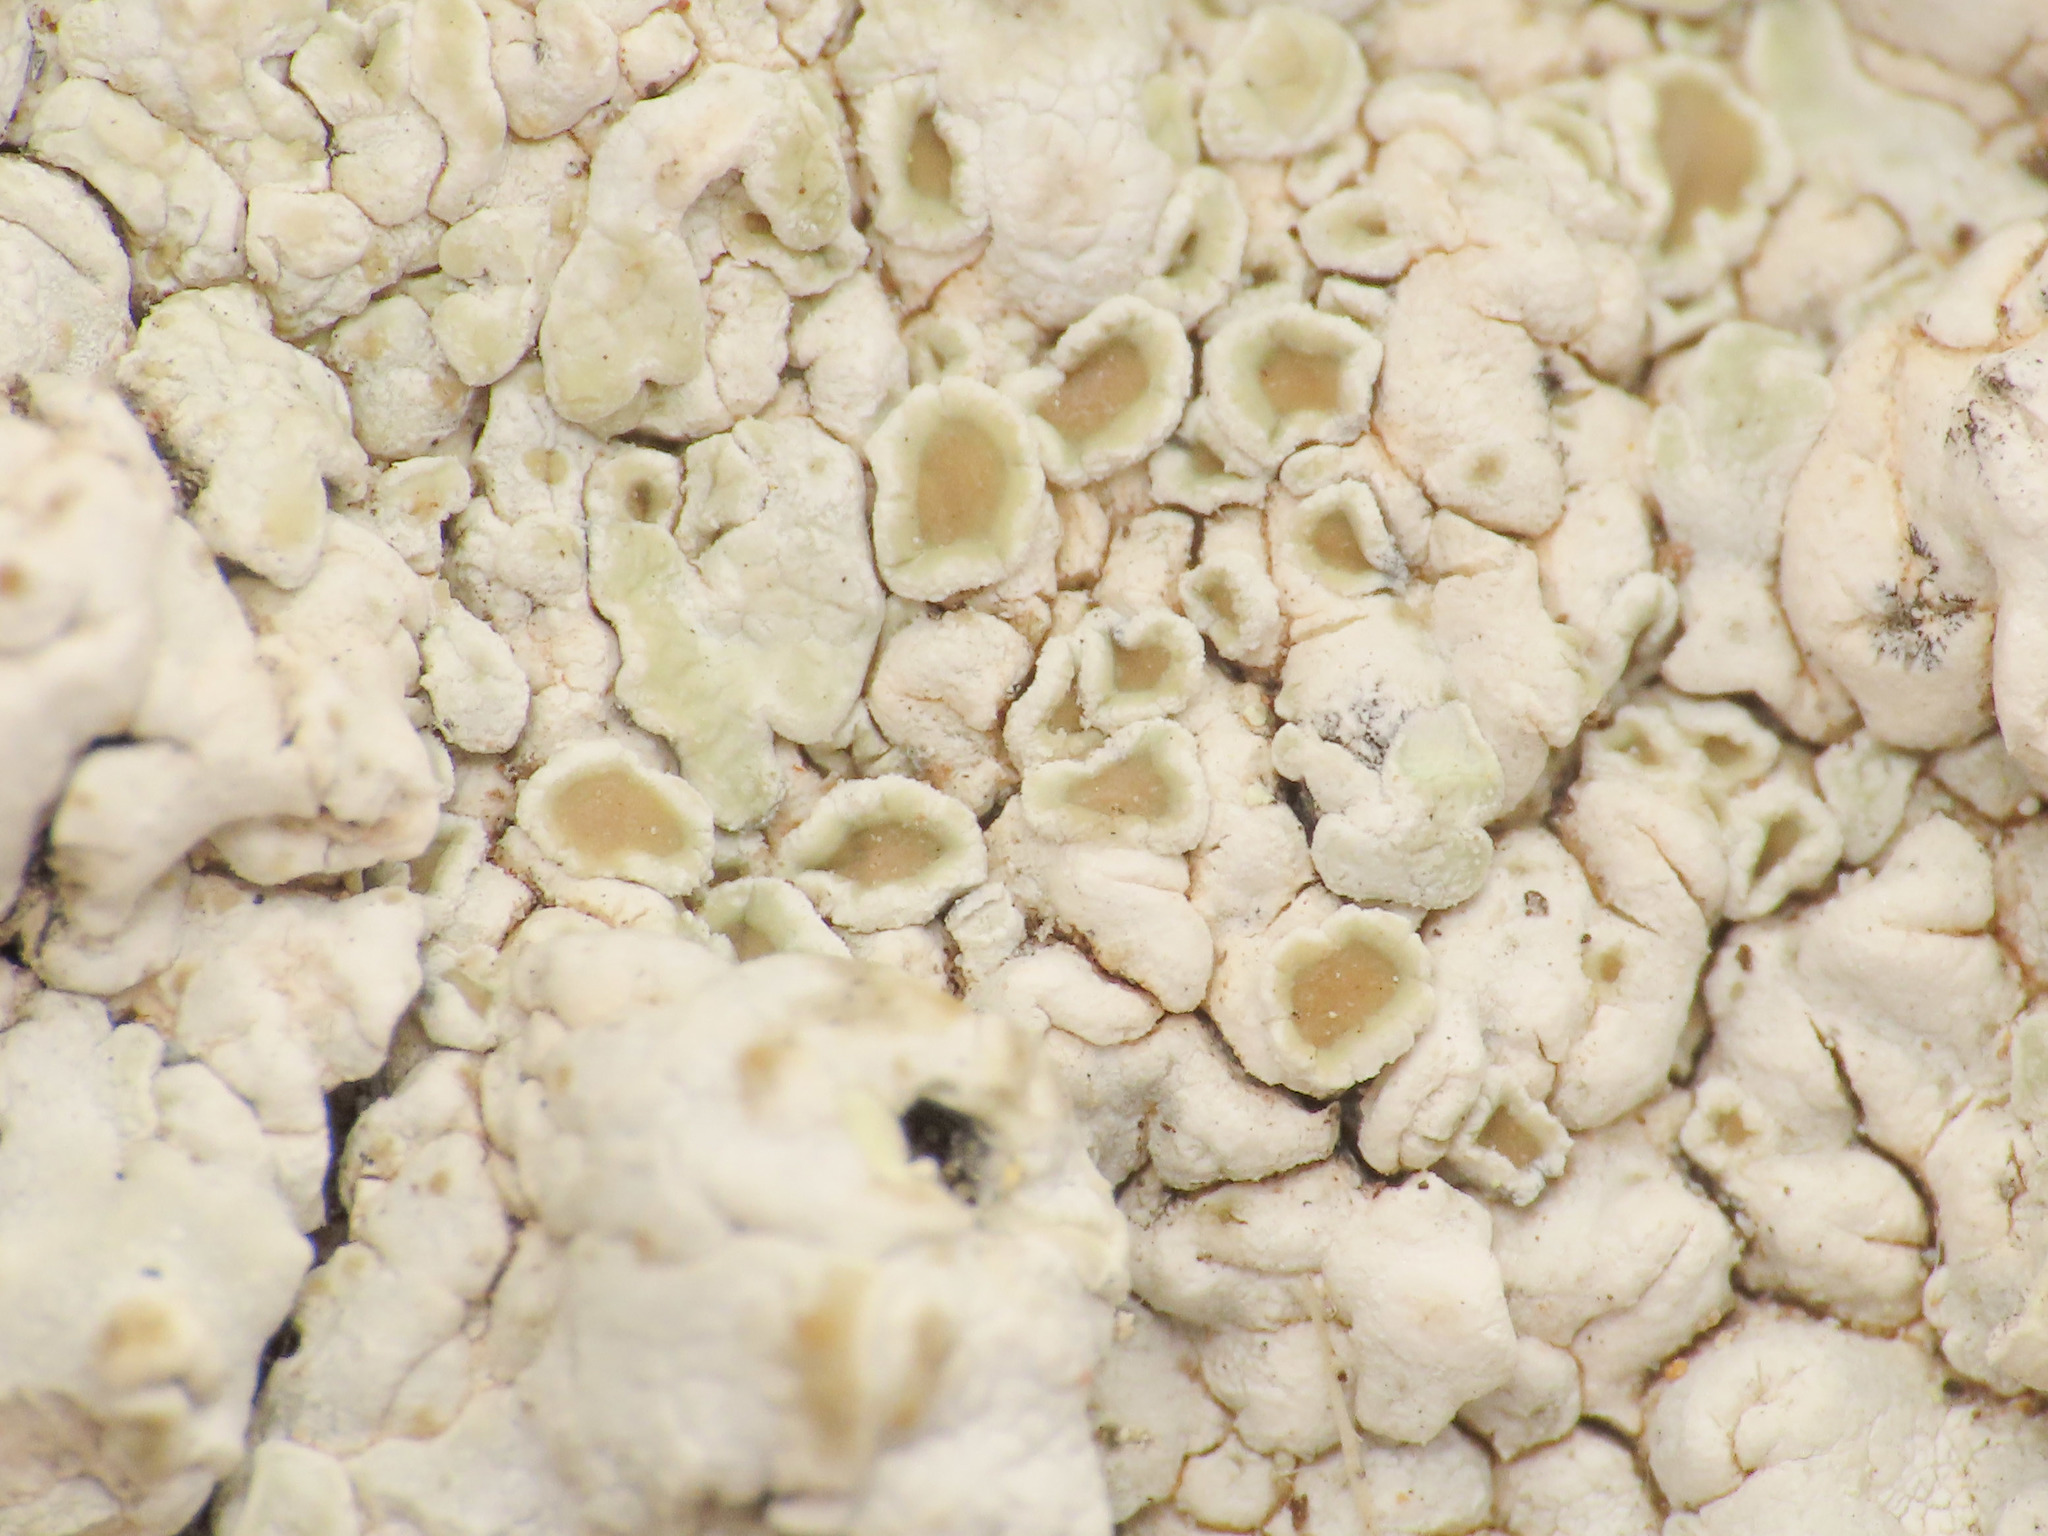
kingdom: Fungi
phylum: Ascomycota
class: Lecanoromycetes
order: Lecanorales
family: Stereocaulaceae
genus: Squamarina
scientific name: Squamarina lentigera
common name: Scaly breck-lichen
